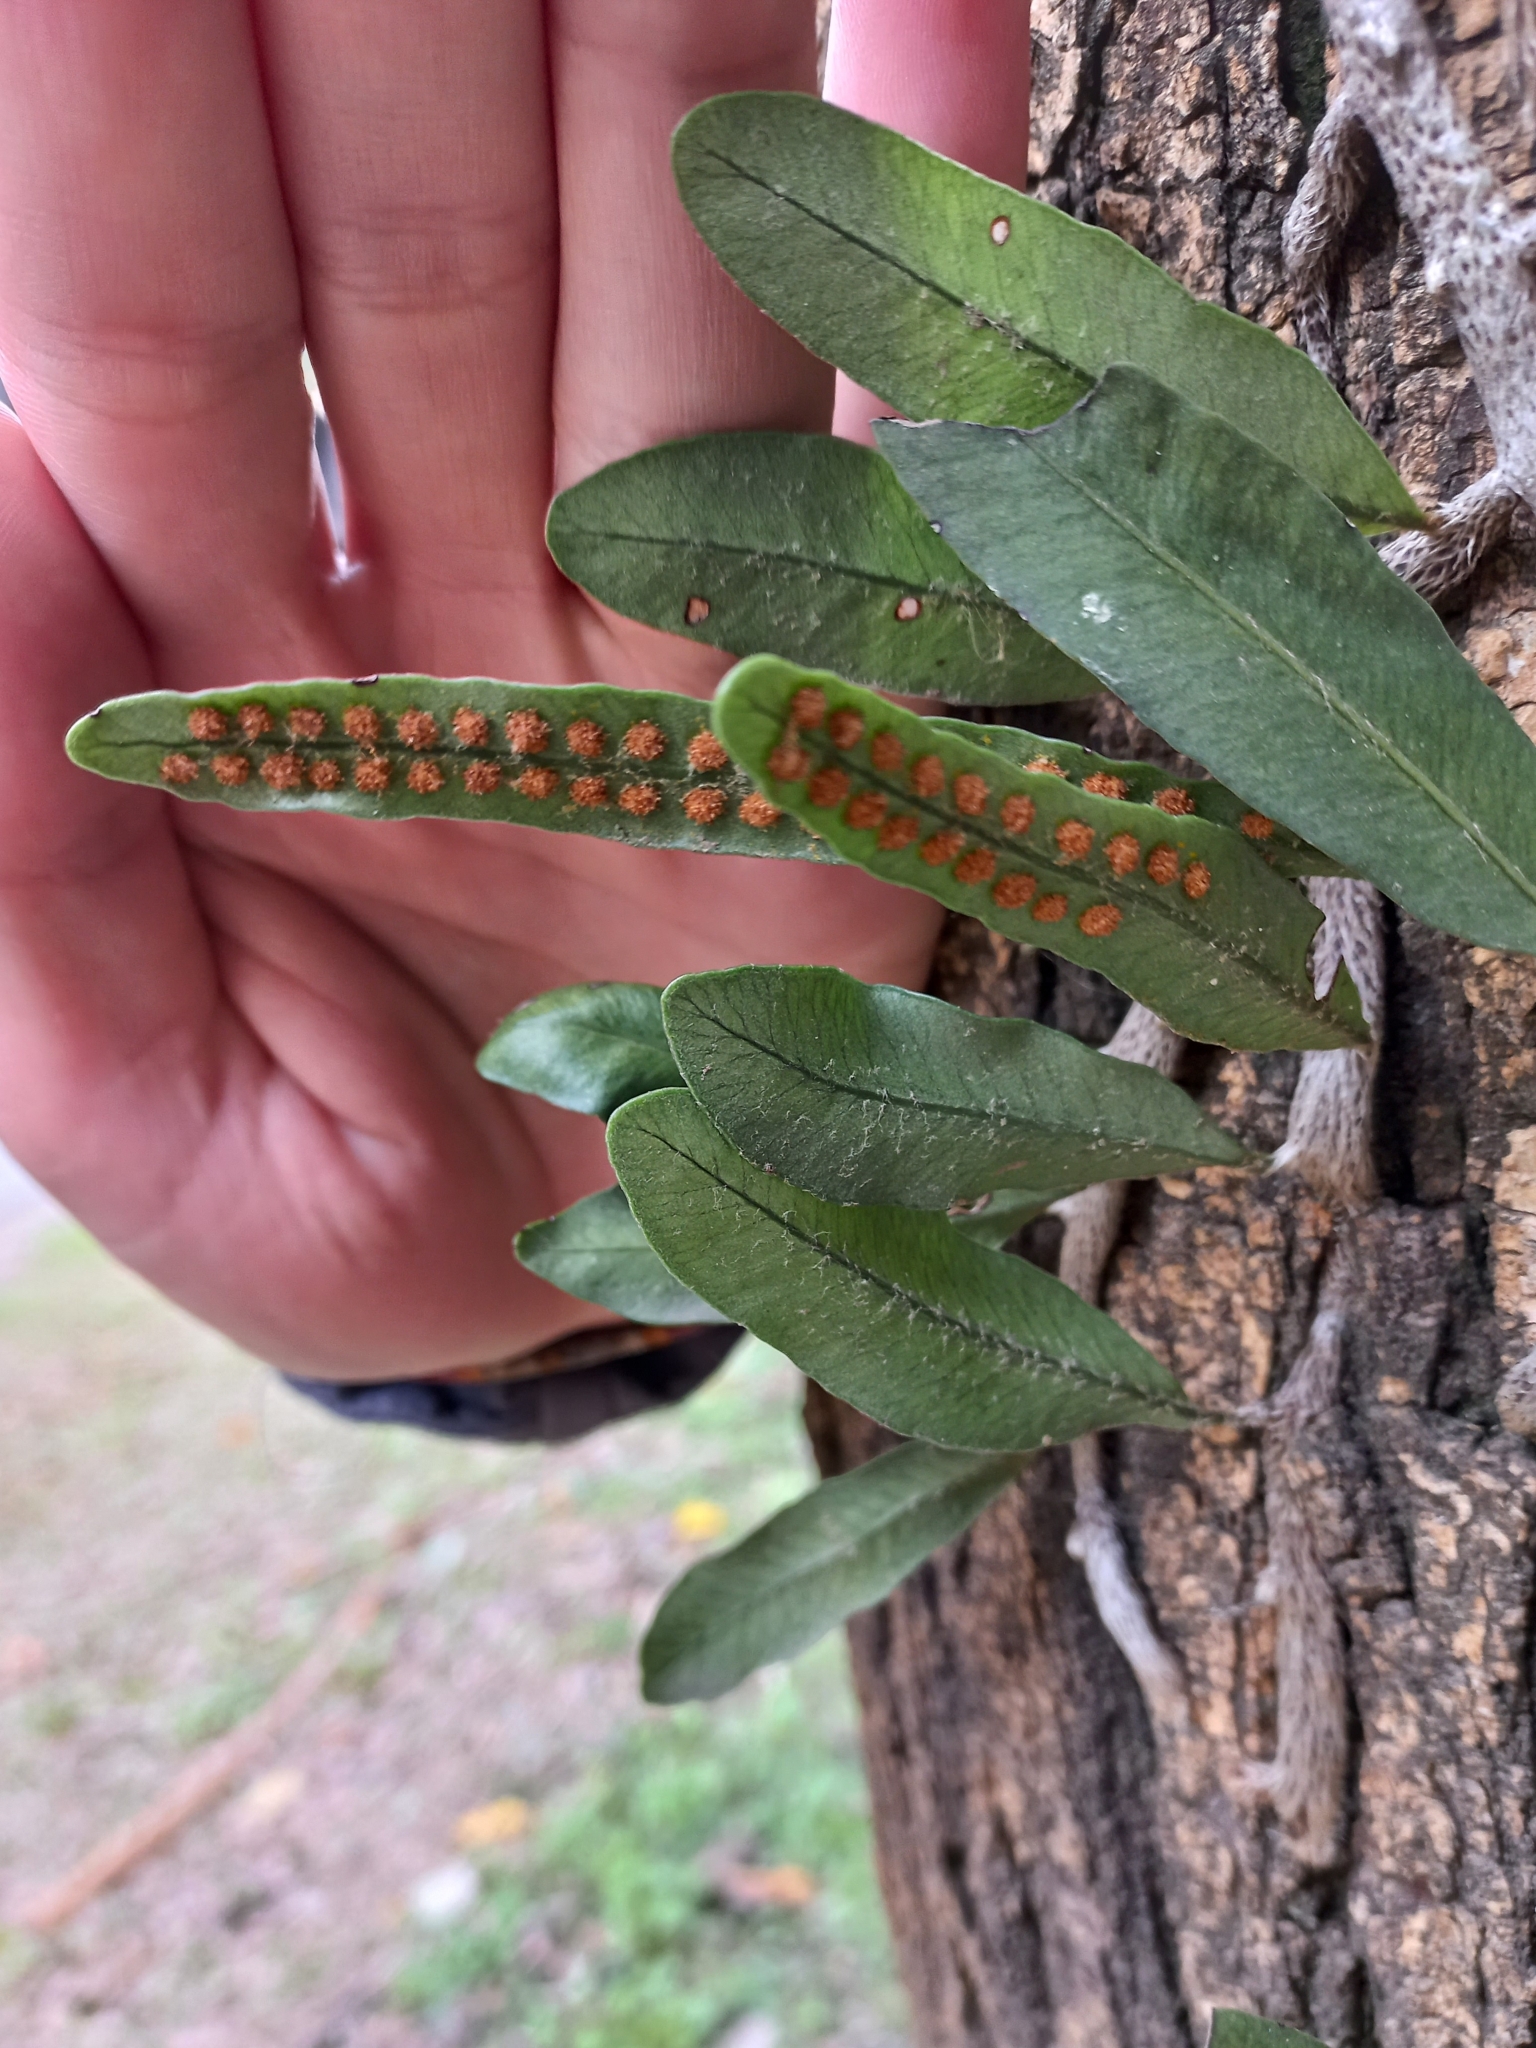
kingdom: Plantae
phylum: Tracheophyta
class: Polypodiopsida
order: Polypodiales
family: Polypodiaceae
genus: Microgramma
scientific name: Microgramma mortoniana
